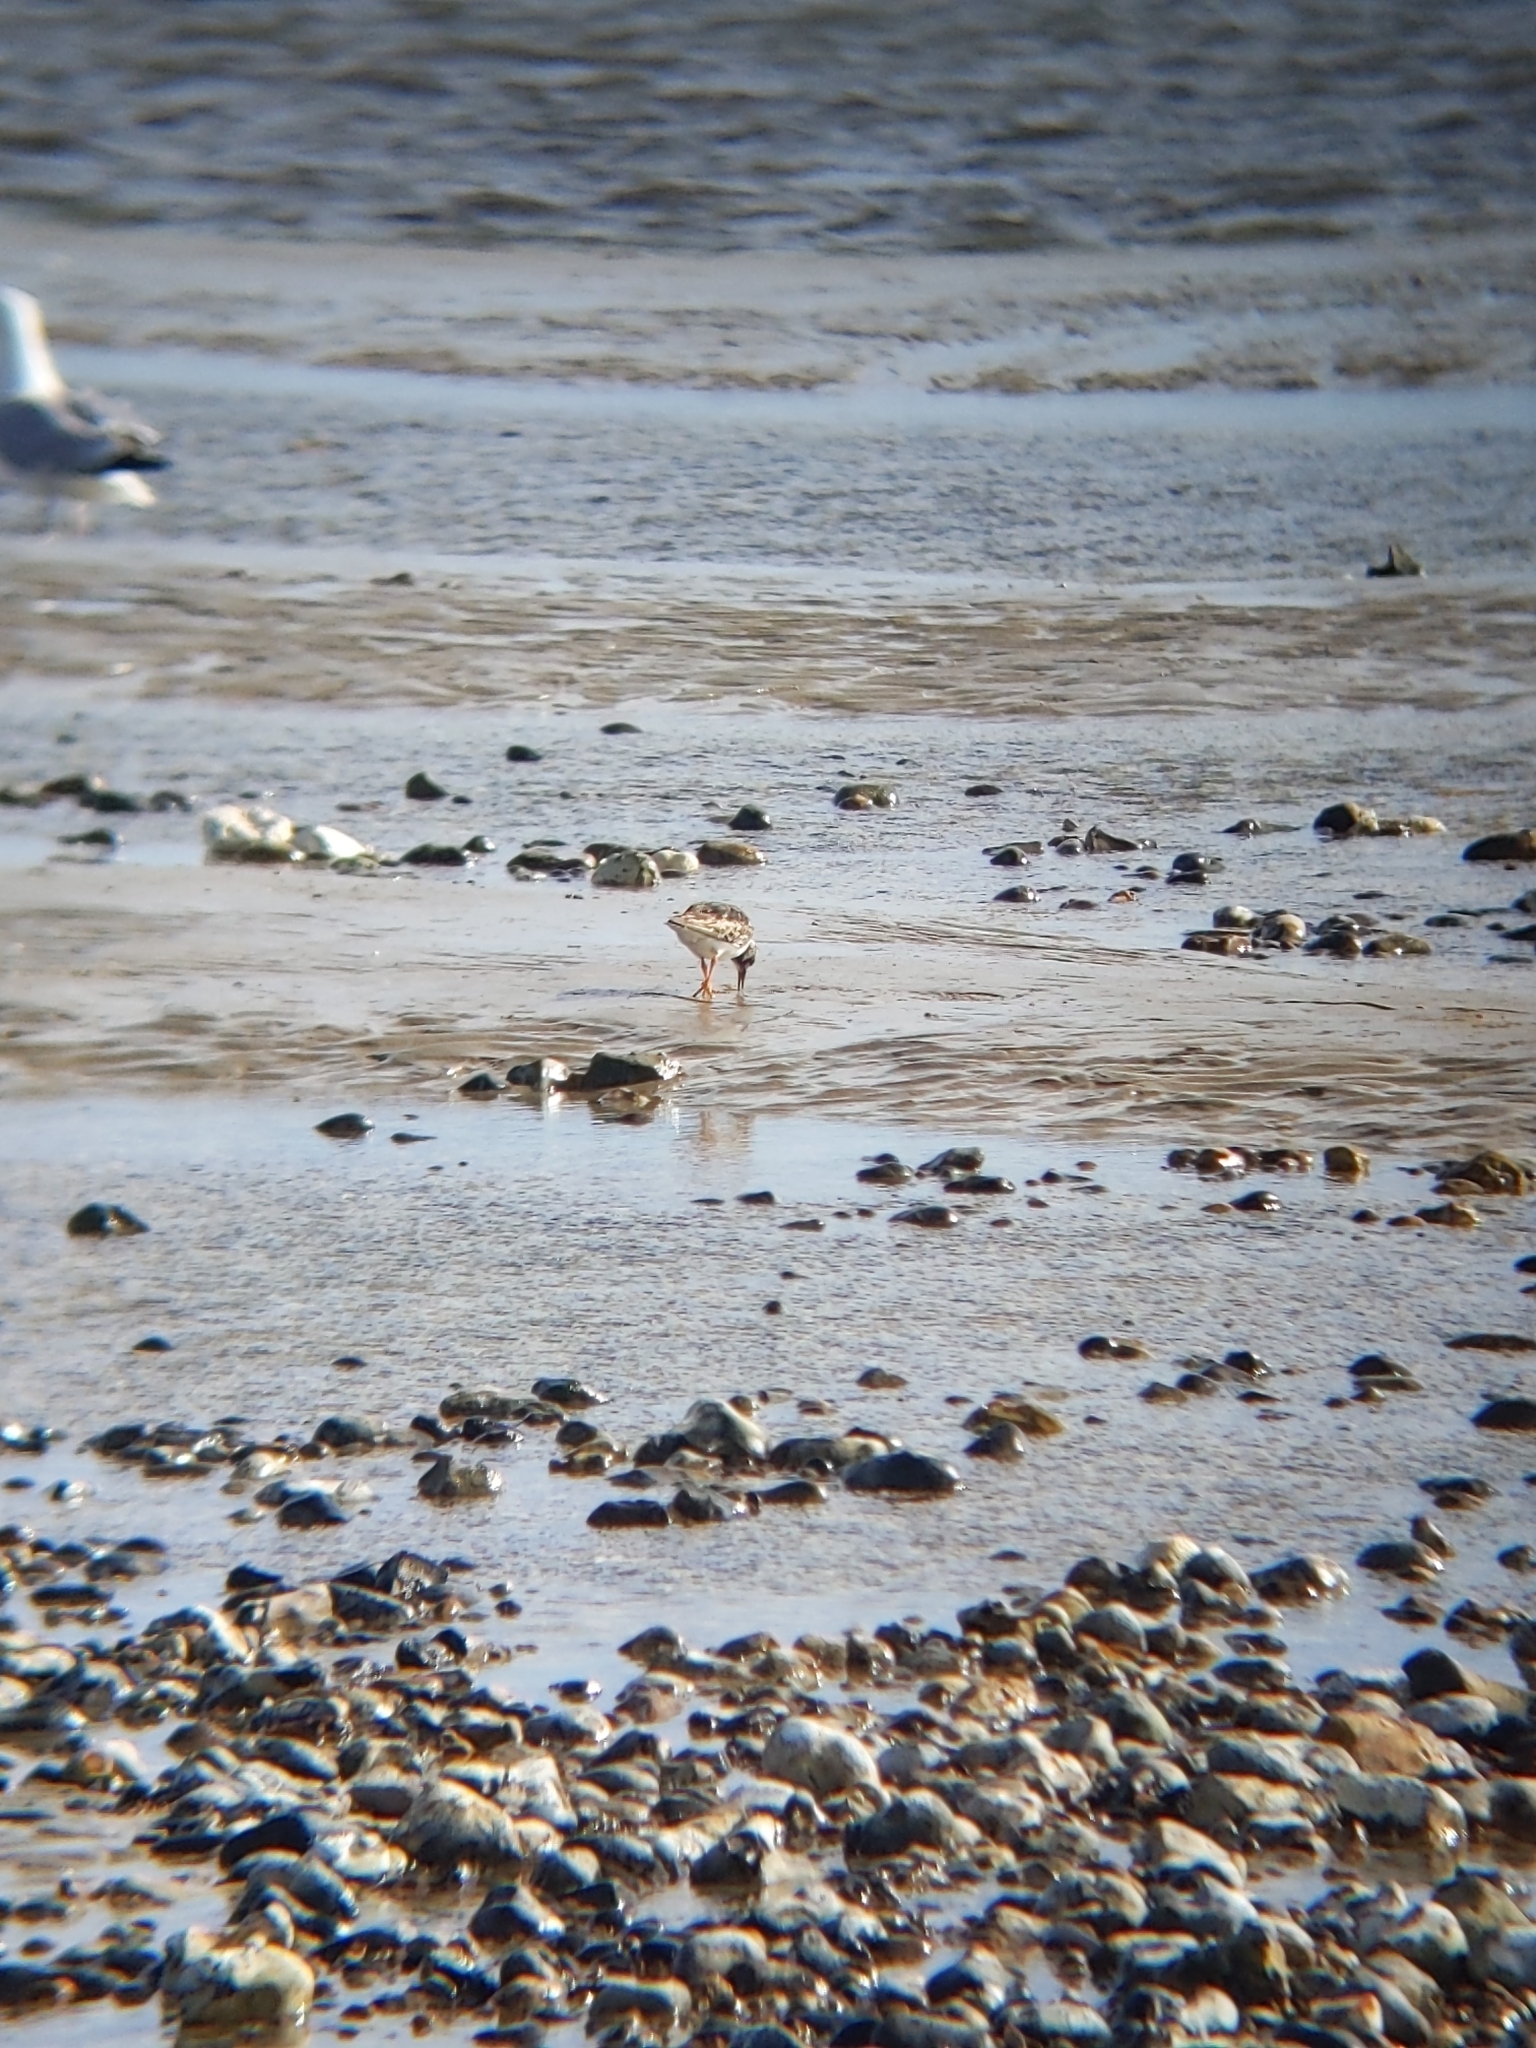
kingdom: Animalia
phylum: Chordata
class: Aves
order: Charadriiformes
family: Scolopacidae
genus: Arenaria
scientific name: Arenaria interpres
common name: Ruddy turnstone
